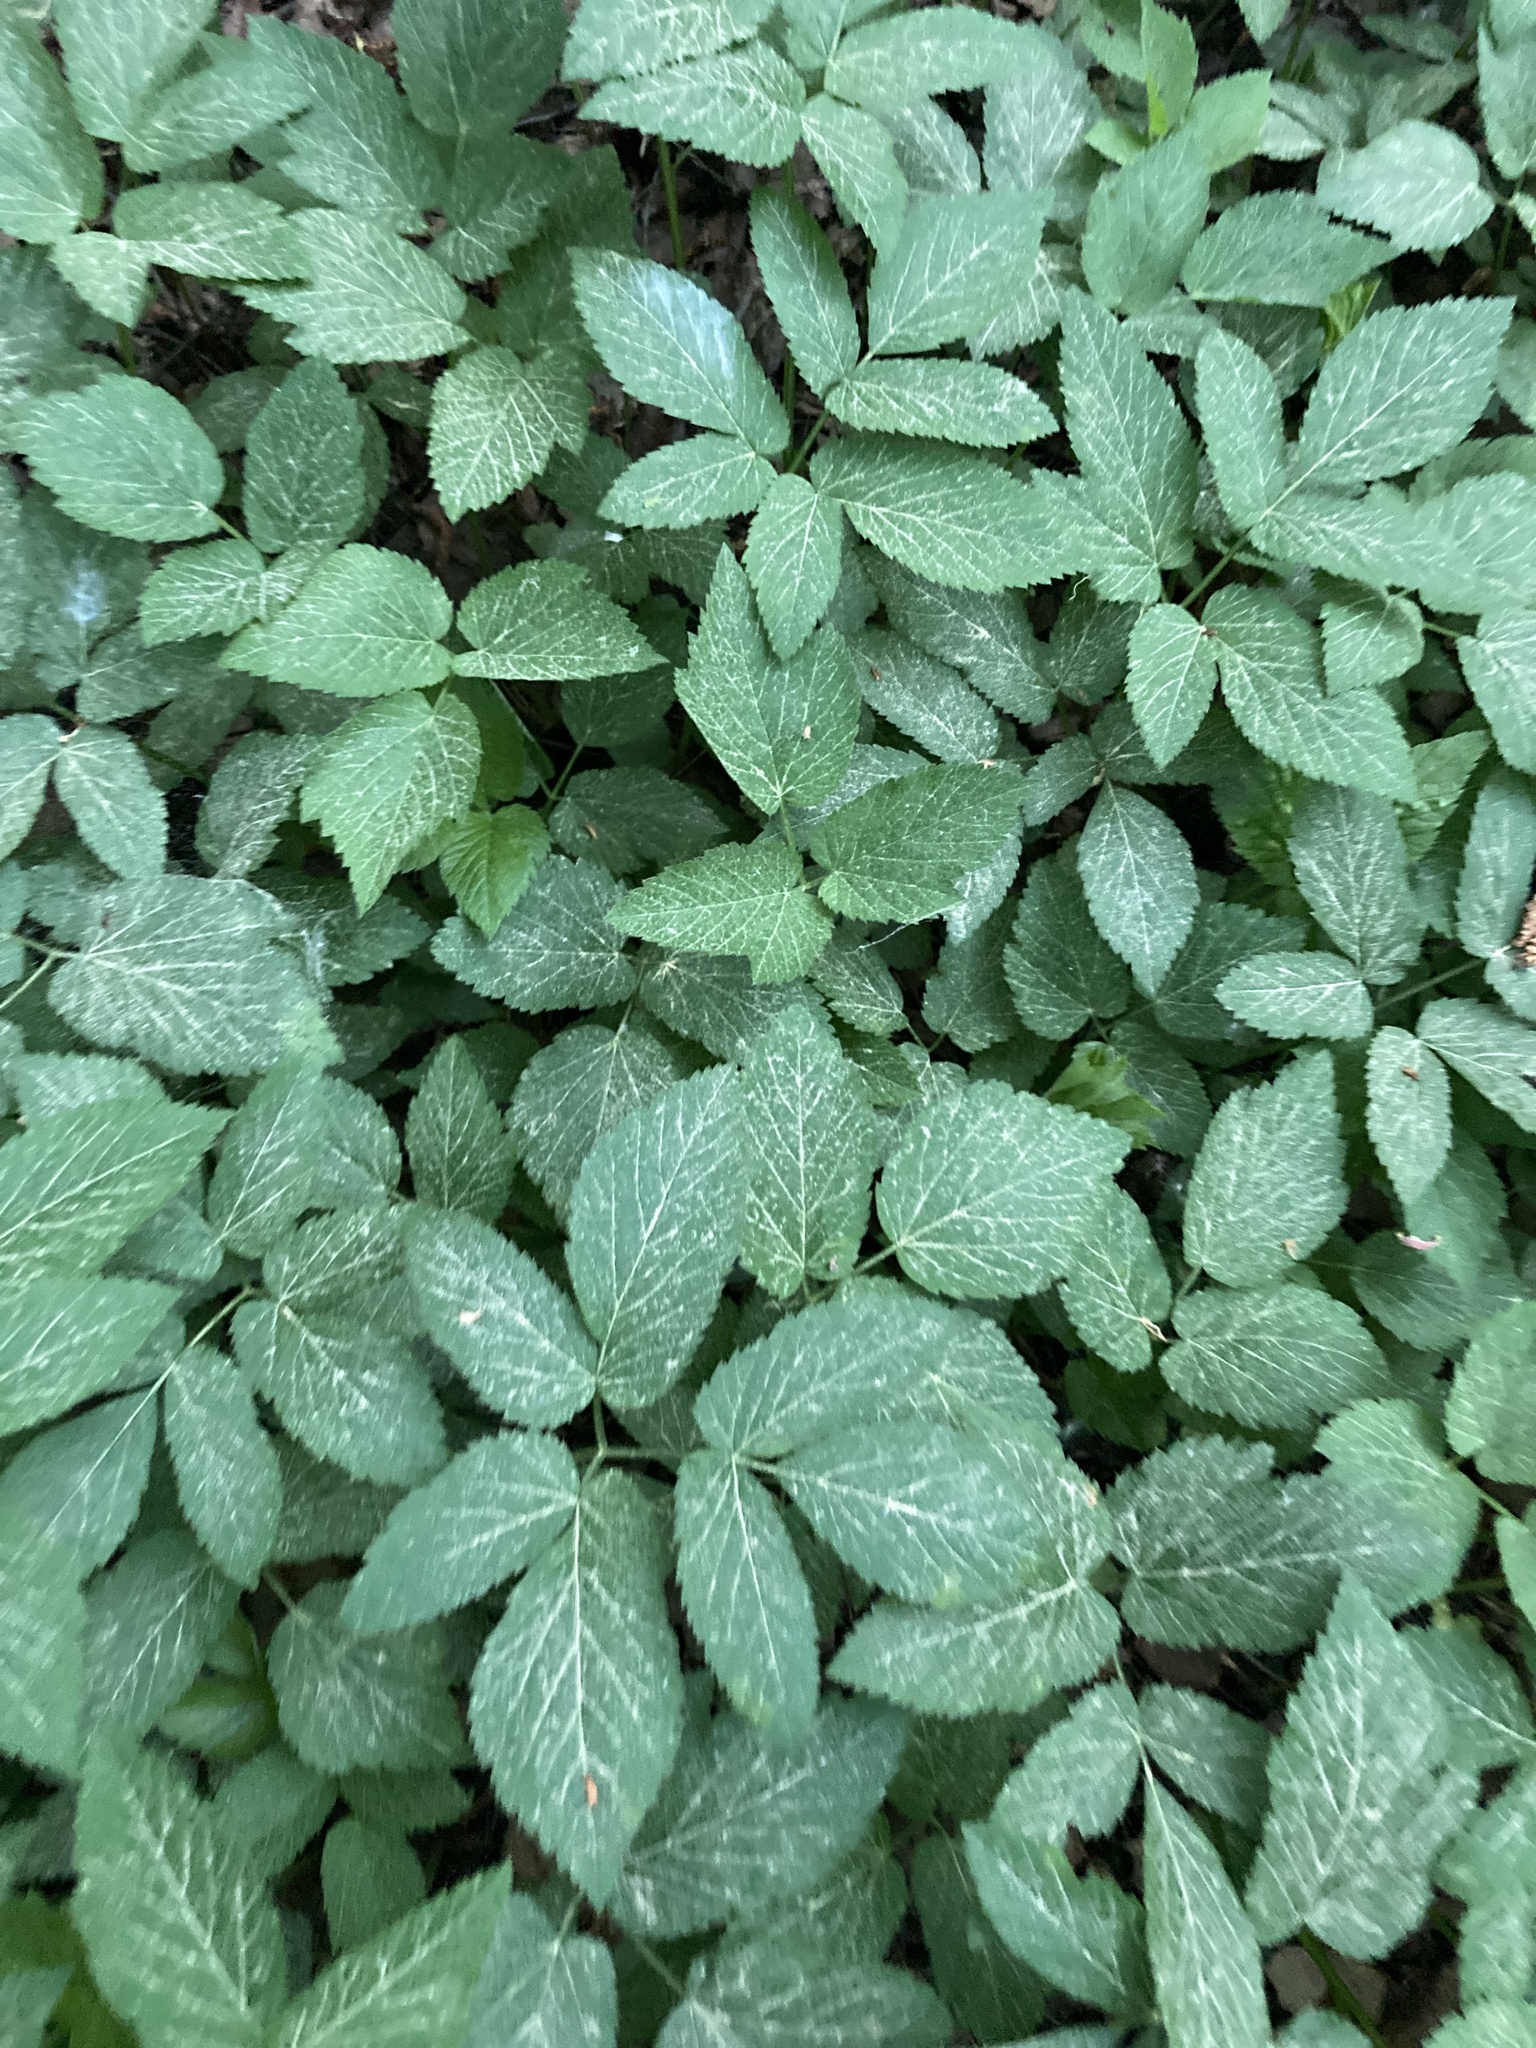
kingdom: Plantae
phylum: Tracheophyta
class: Magnoliopsida
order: Apiales
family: Apiaceae
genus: Aegopodium
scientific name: Aegopodium podagraria
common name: Ground-elder
